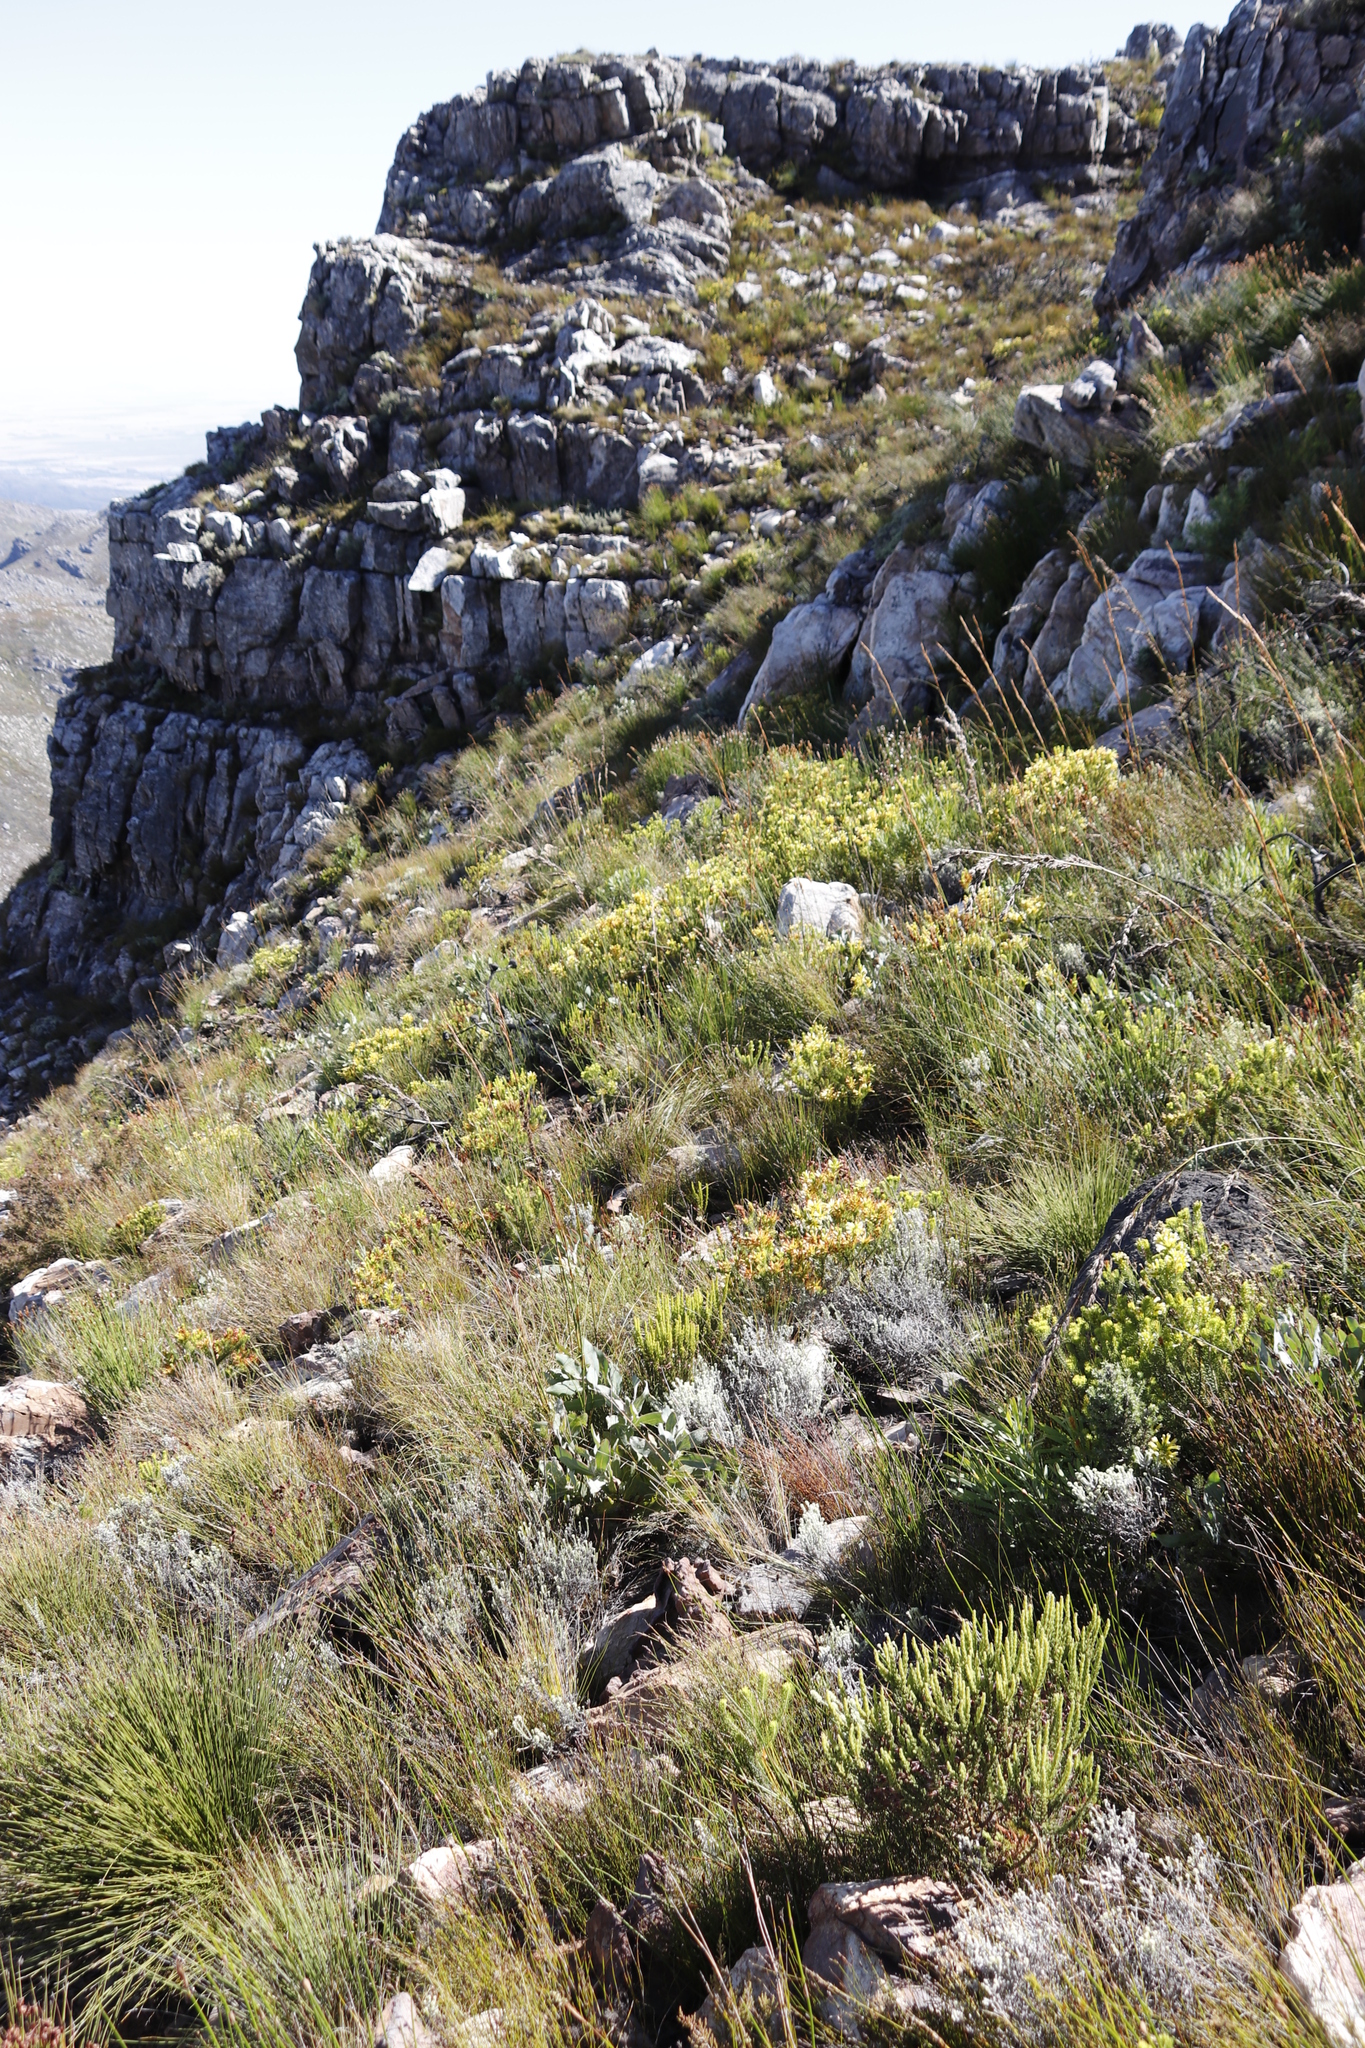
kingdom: Plantae
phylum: Tracheophyta
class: Magnoliopsida
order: Proteales
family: Proteaceae
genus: Protea
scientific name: Protea magnifica
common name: Bearded sugarbush
